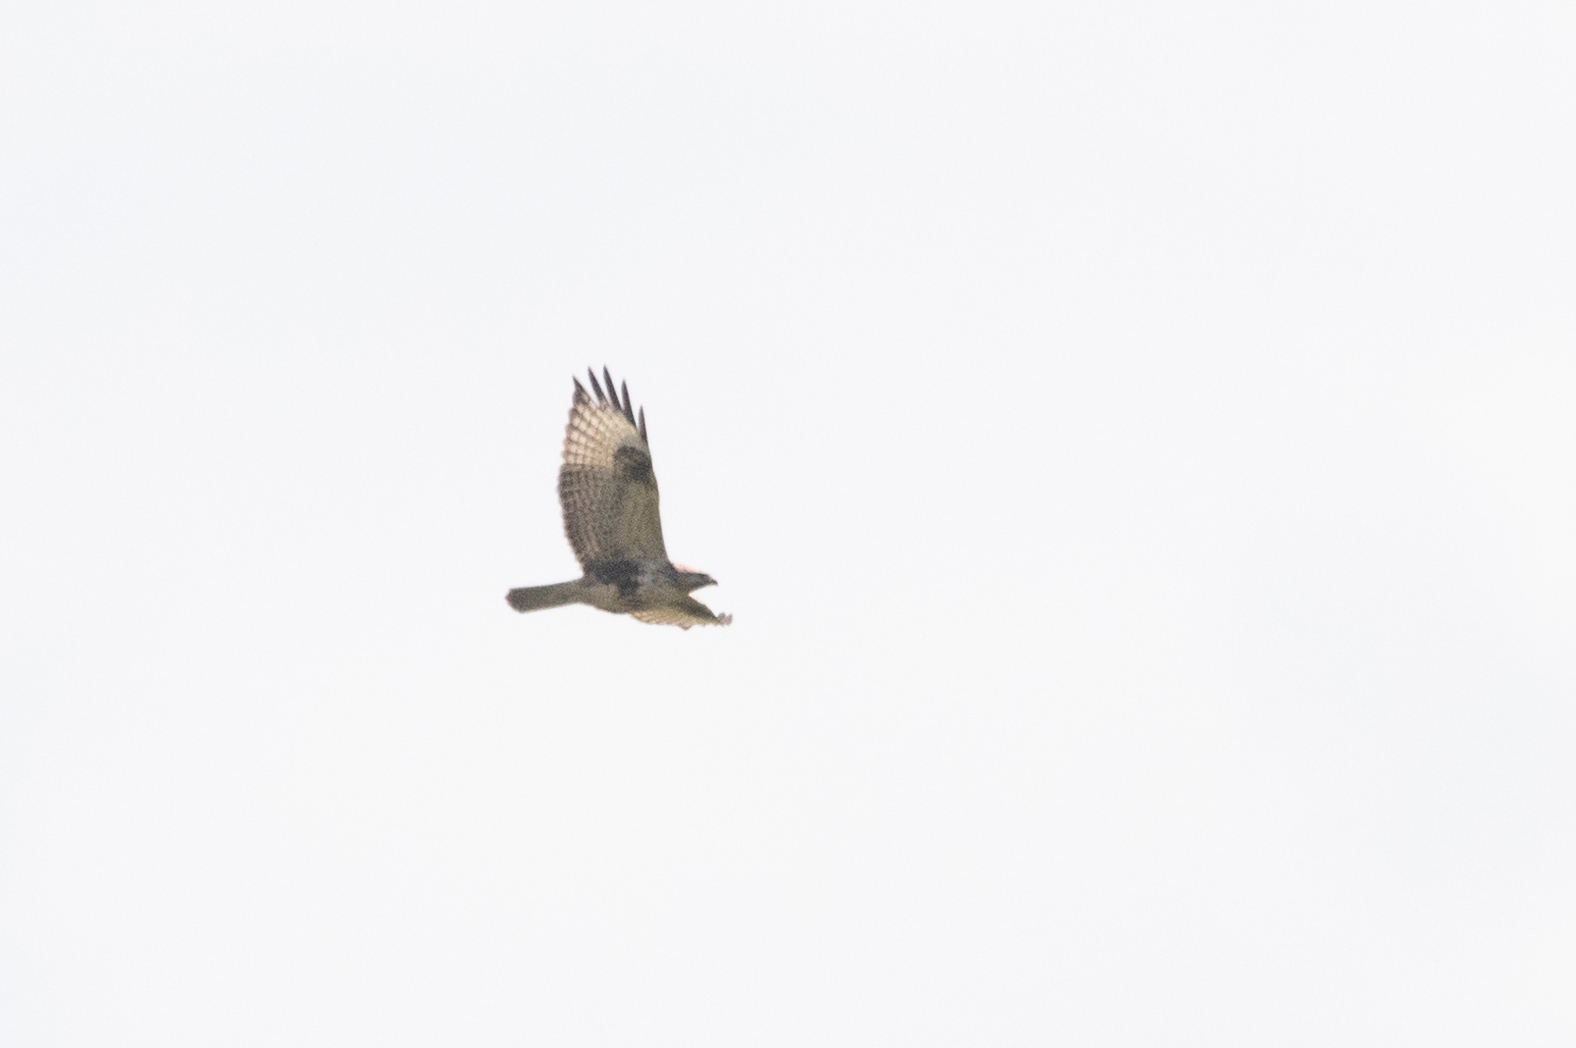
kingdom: Animalia
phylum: Chordata
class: Aves
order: Accipitriformes
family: Accipitridae
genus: Buteo
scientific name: Buteo japonicus
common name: Eastern buzzard
